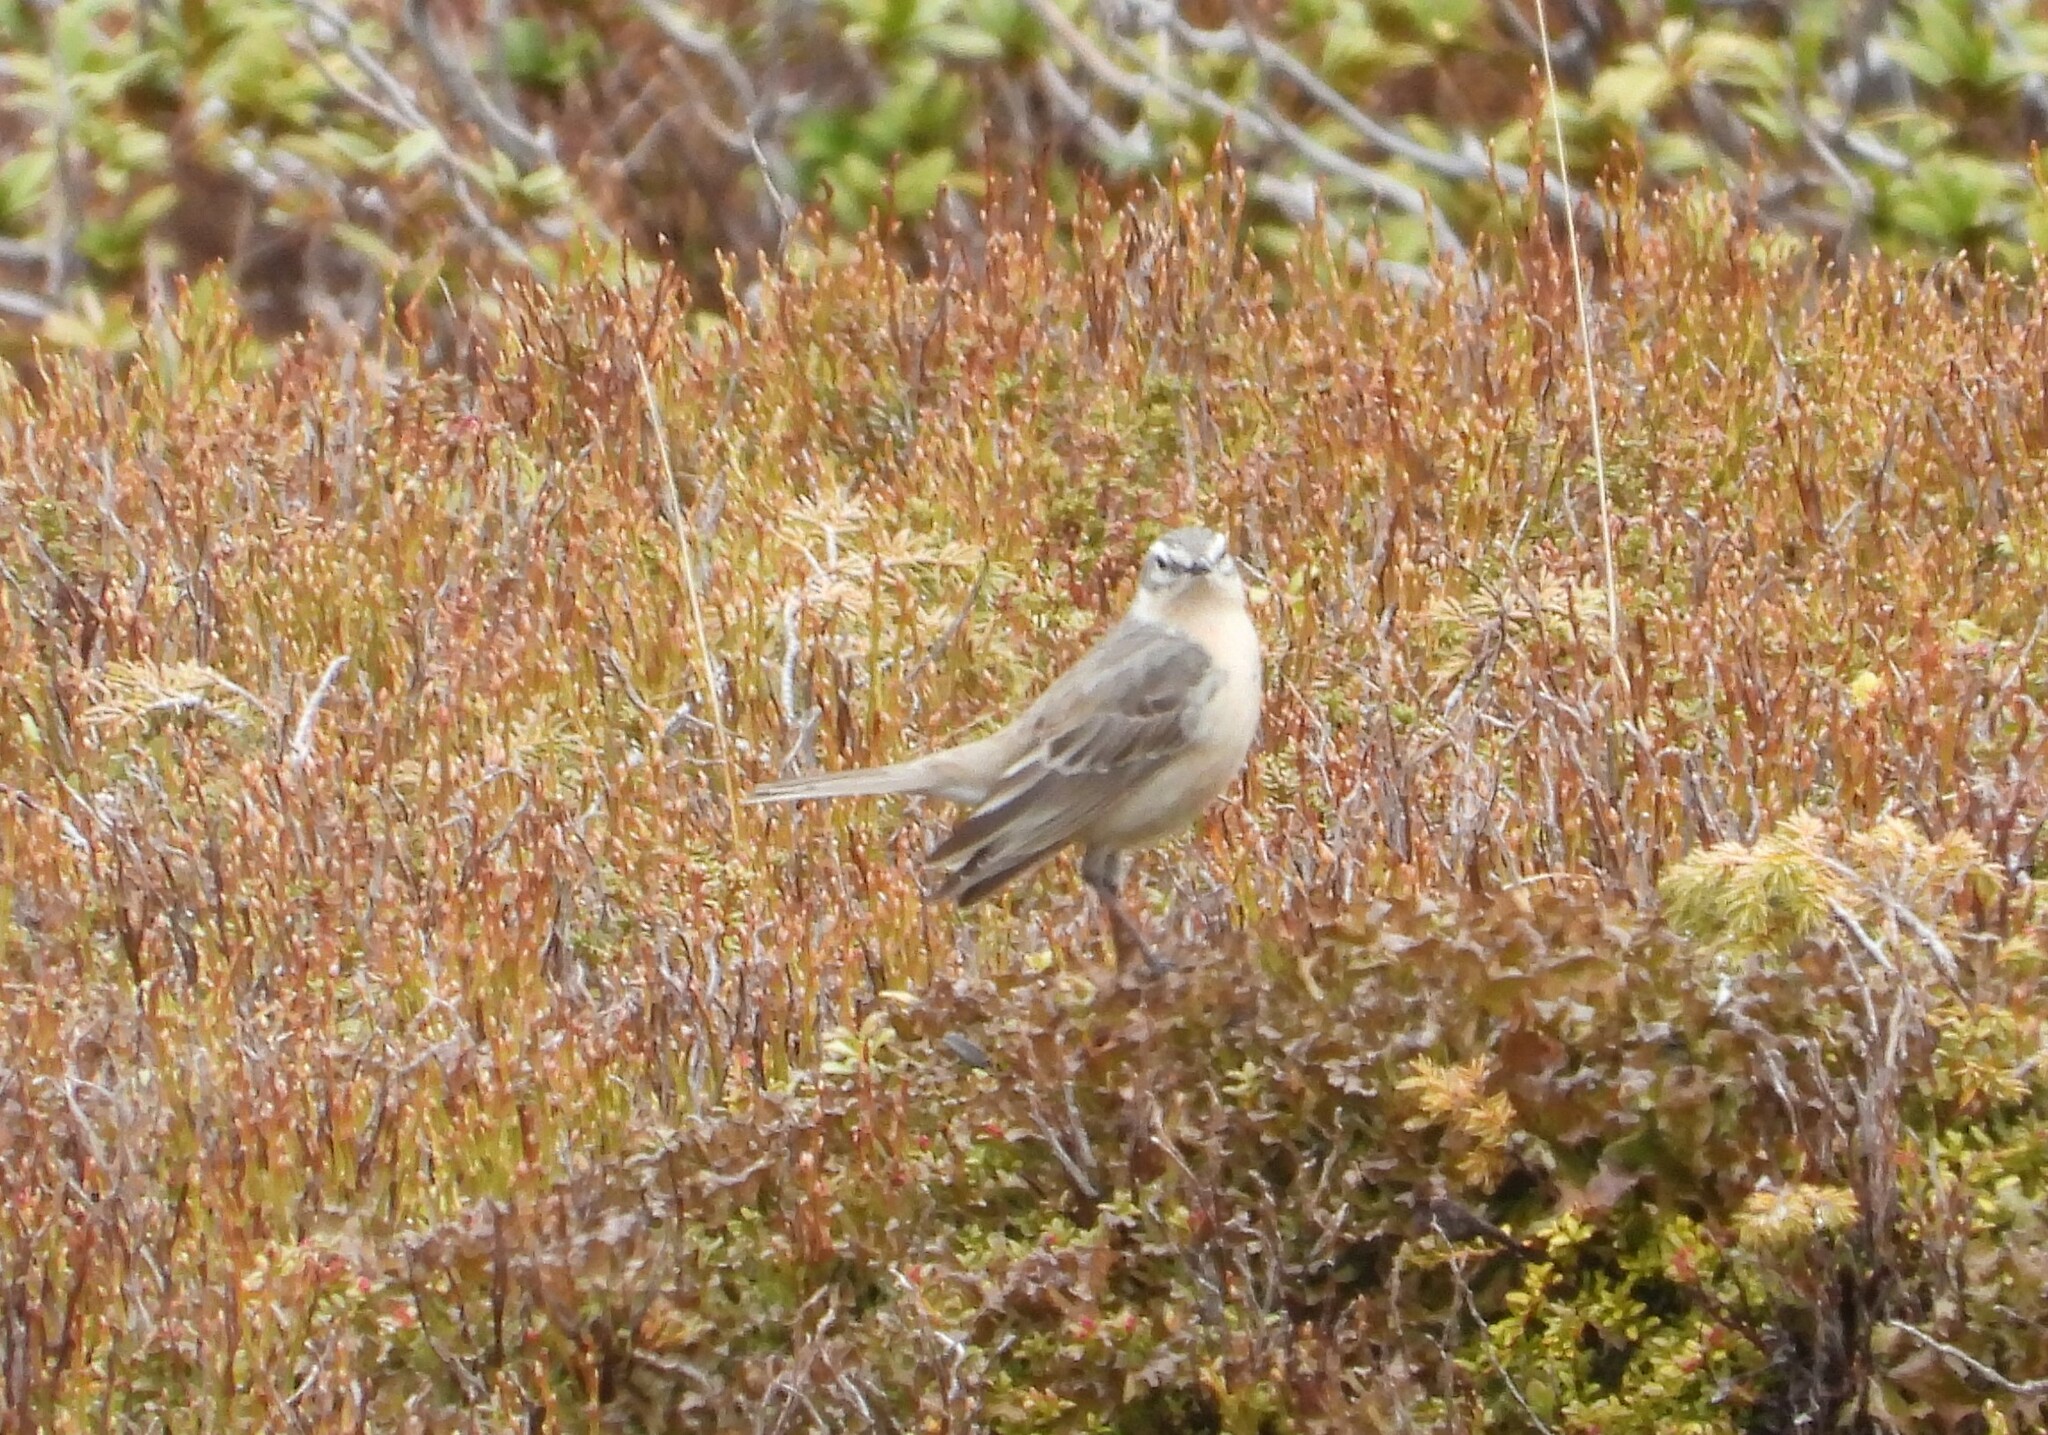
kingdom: Animalia
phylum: Chordata
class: Aves
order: Passeriformes
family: Motacillidae
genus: Anthus
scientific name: Anthus spinoletta
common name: Water pipit
